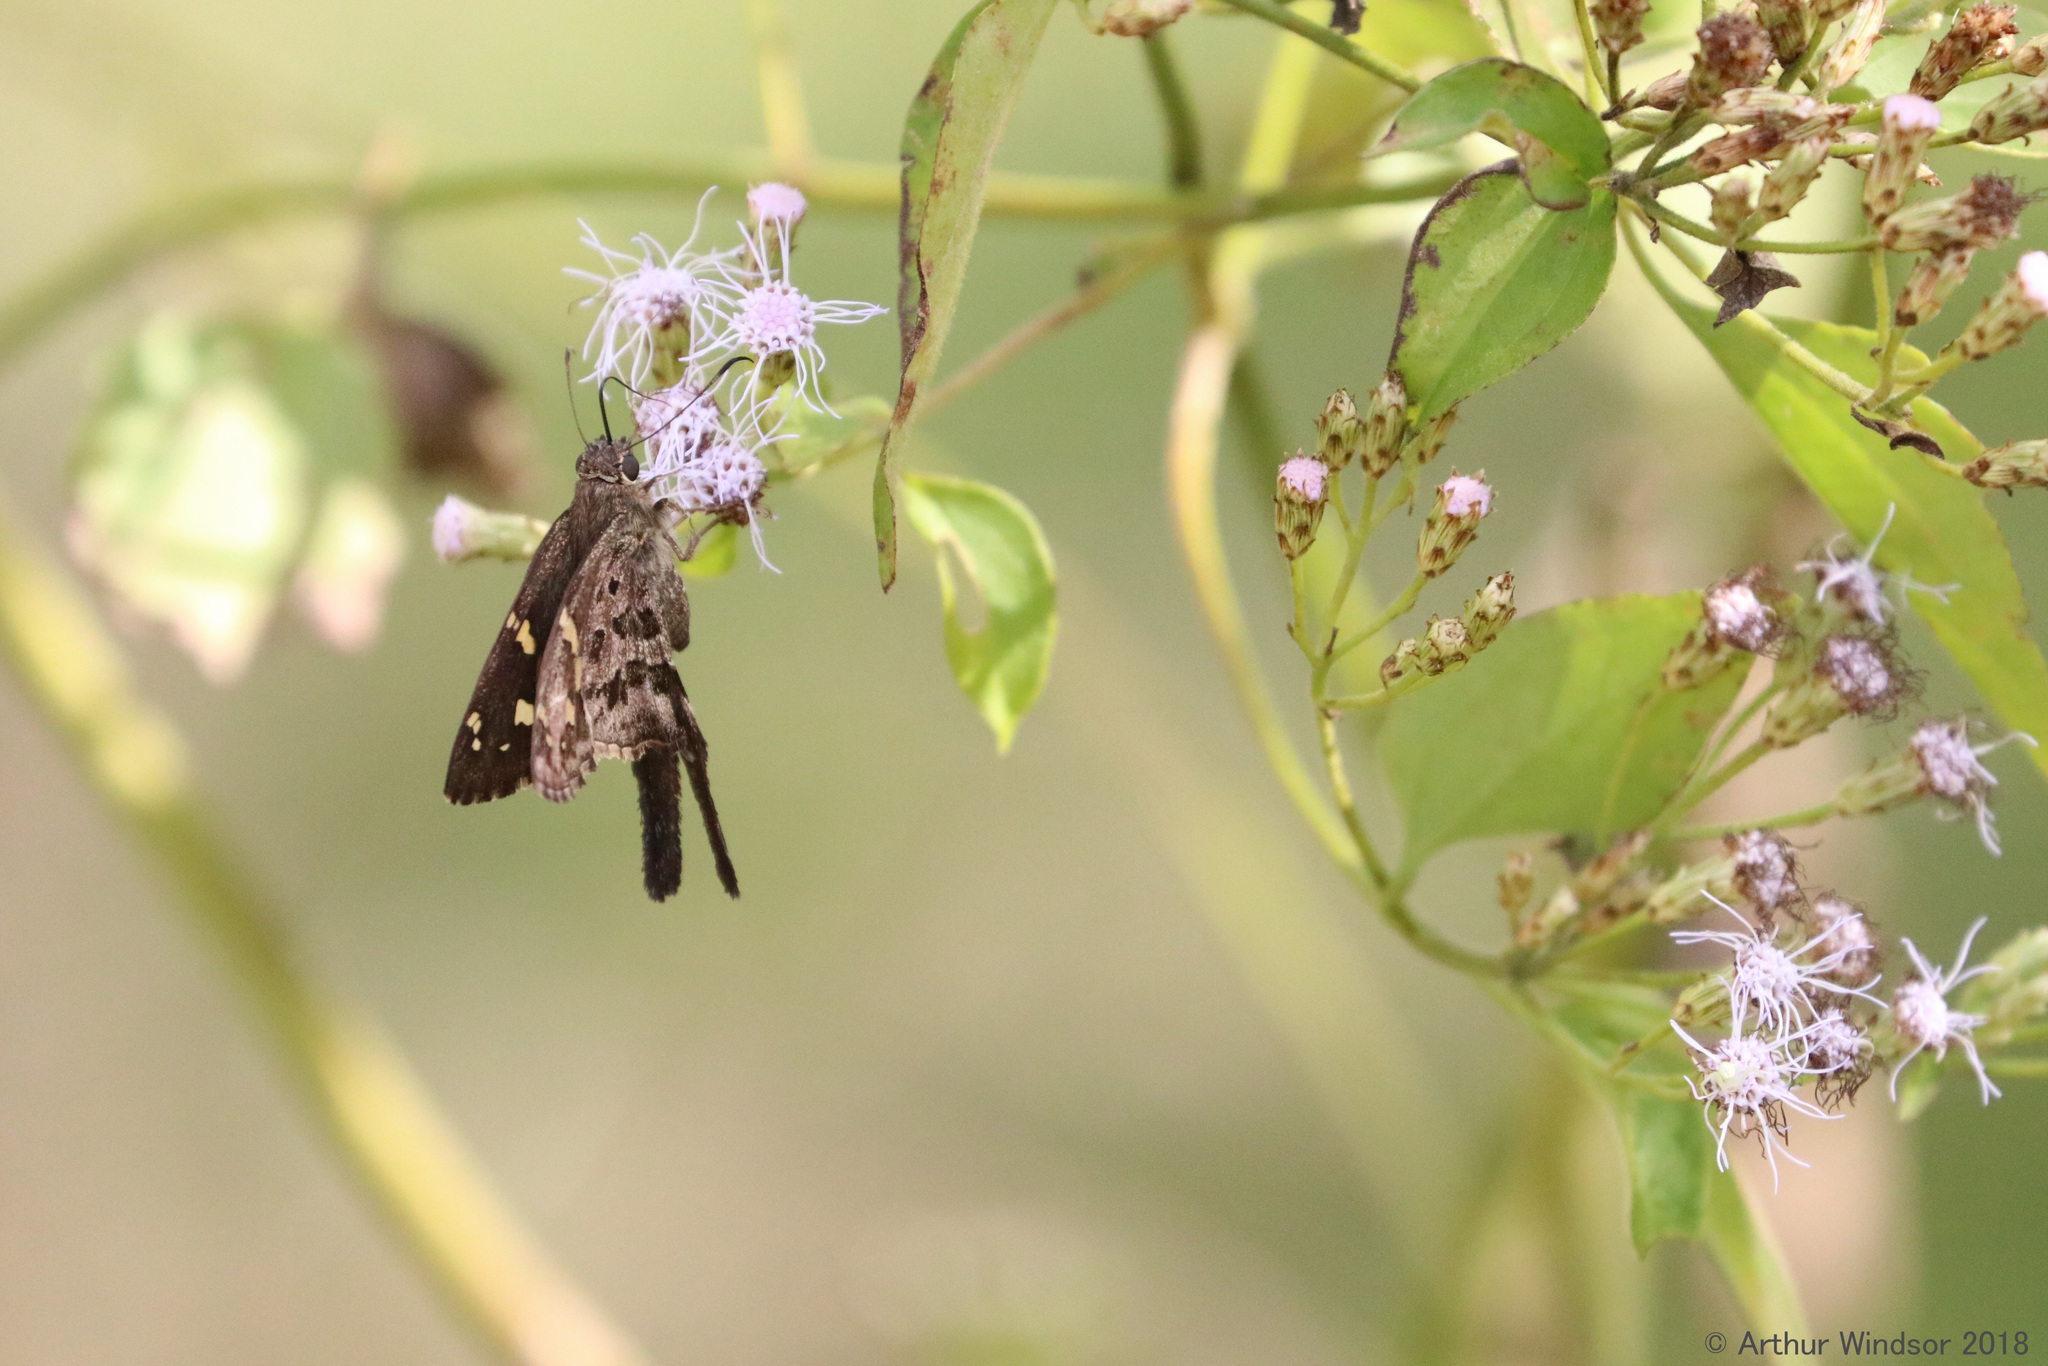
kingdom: Animalia
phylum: Arthropoda
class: Insecta
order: Lepidoptera
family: Hesperiidae
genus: Thorybes
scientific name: Thorybes
